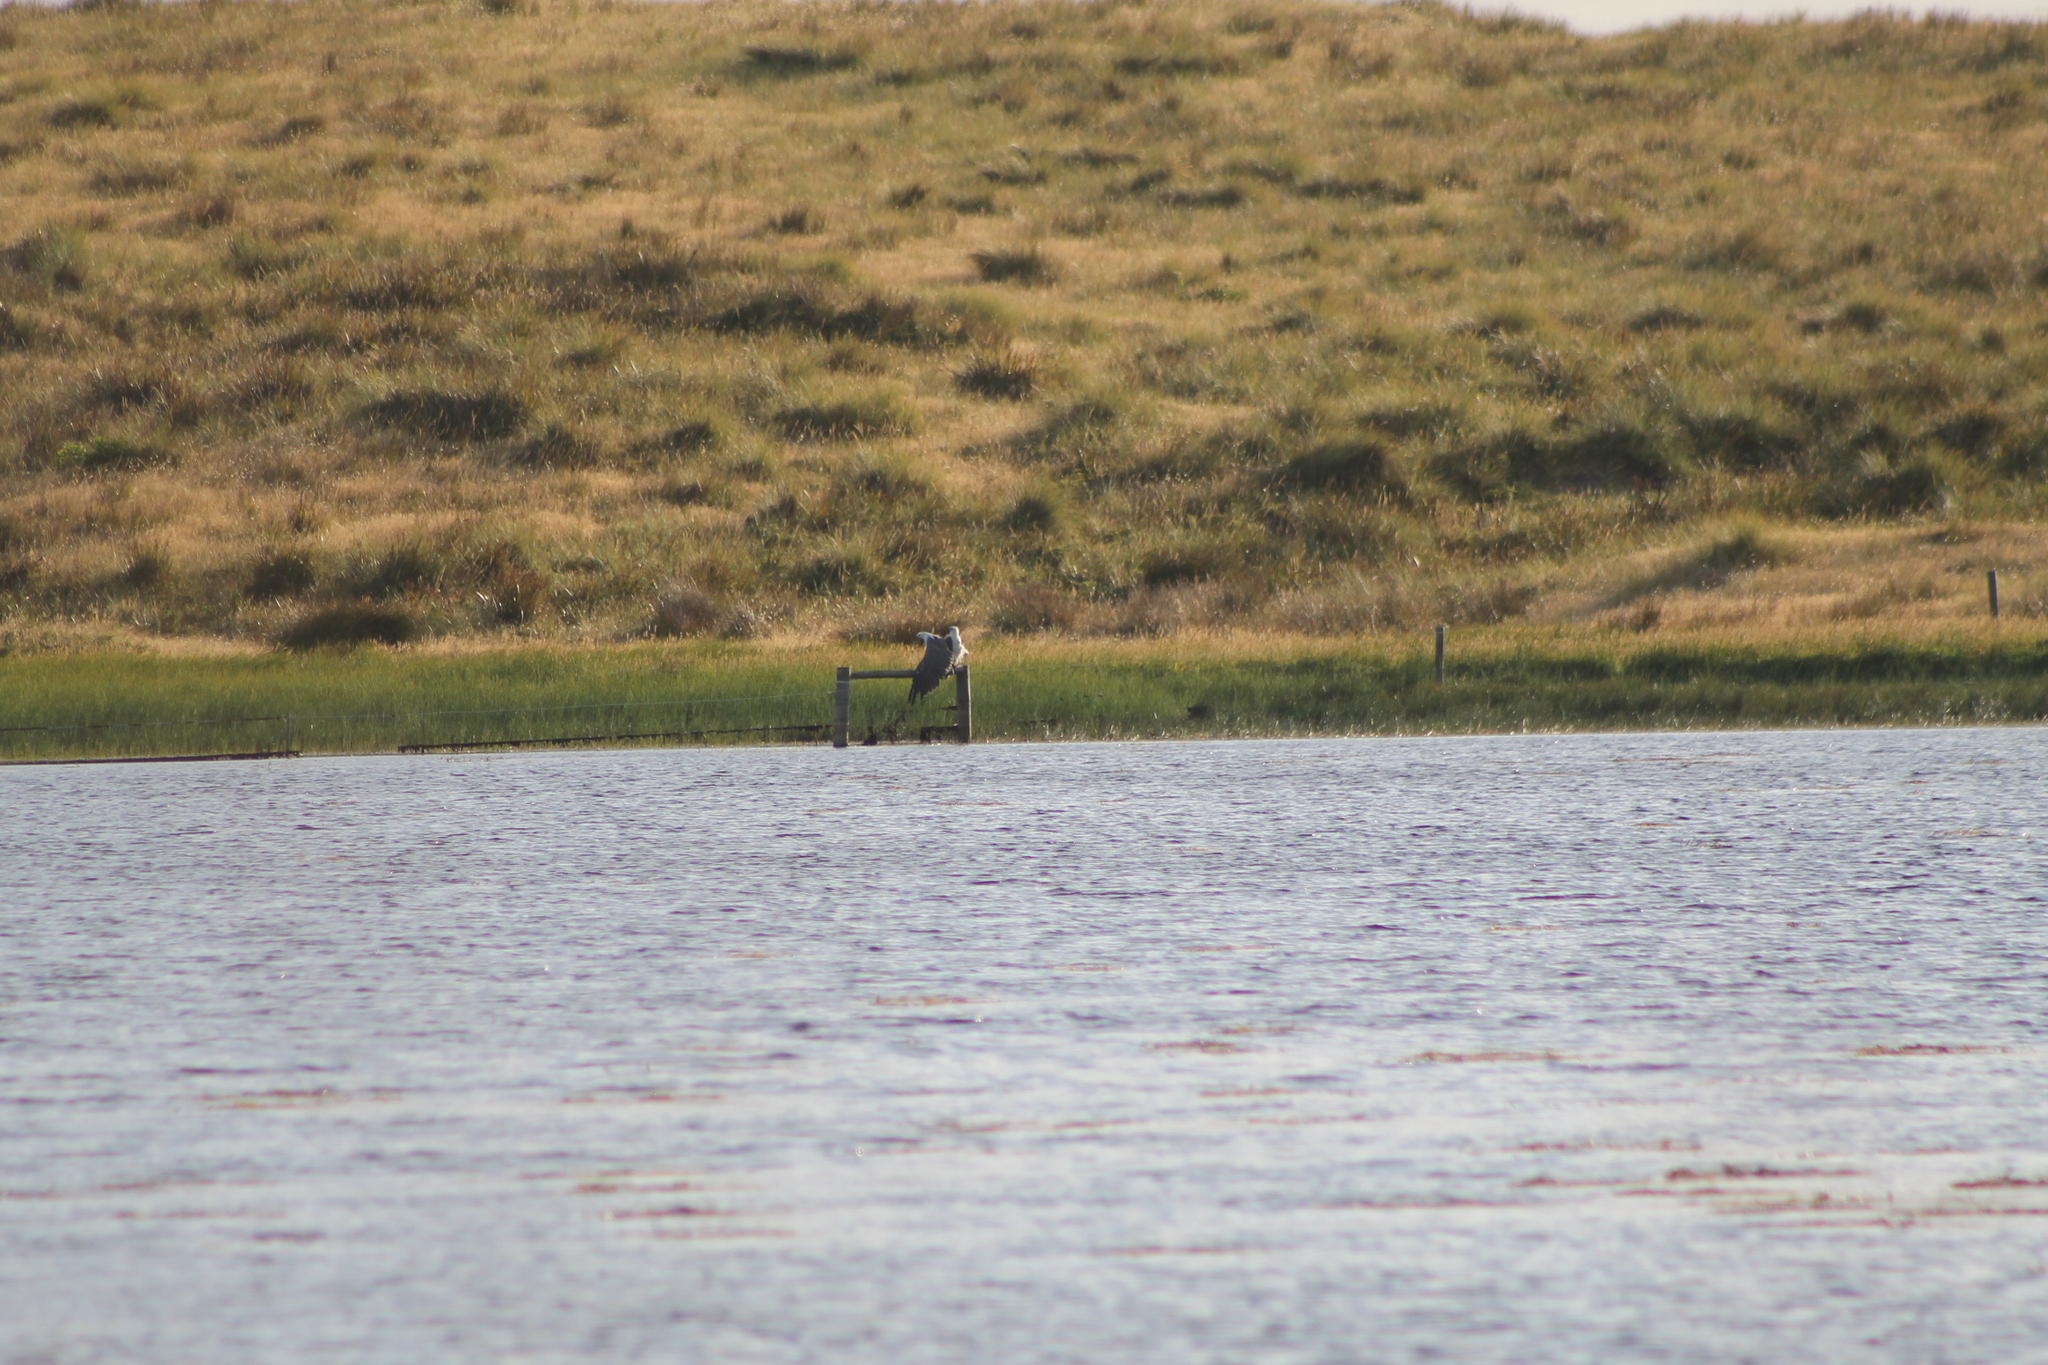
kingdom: Animalia
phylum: Chordata
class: Aves
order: Accipitriformes
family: Accipitridae
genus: Haliaeetus
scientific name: Haliaeetus leucogaster
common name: White-bellied sea eagle
